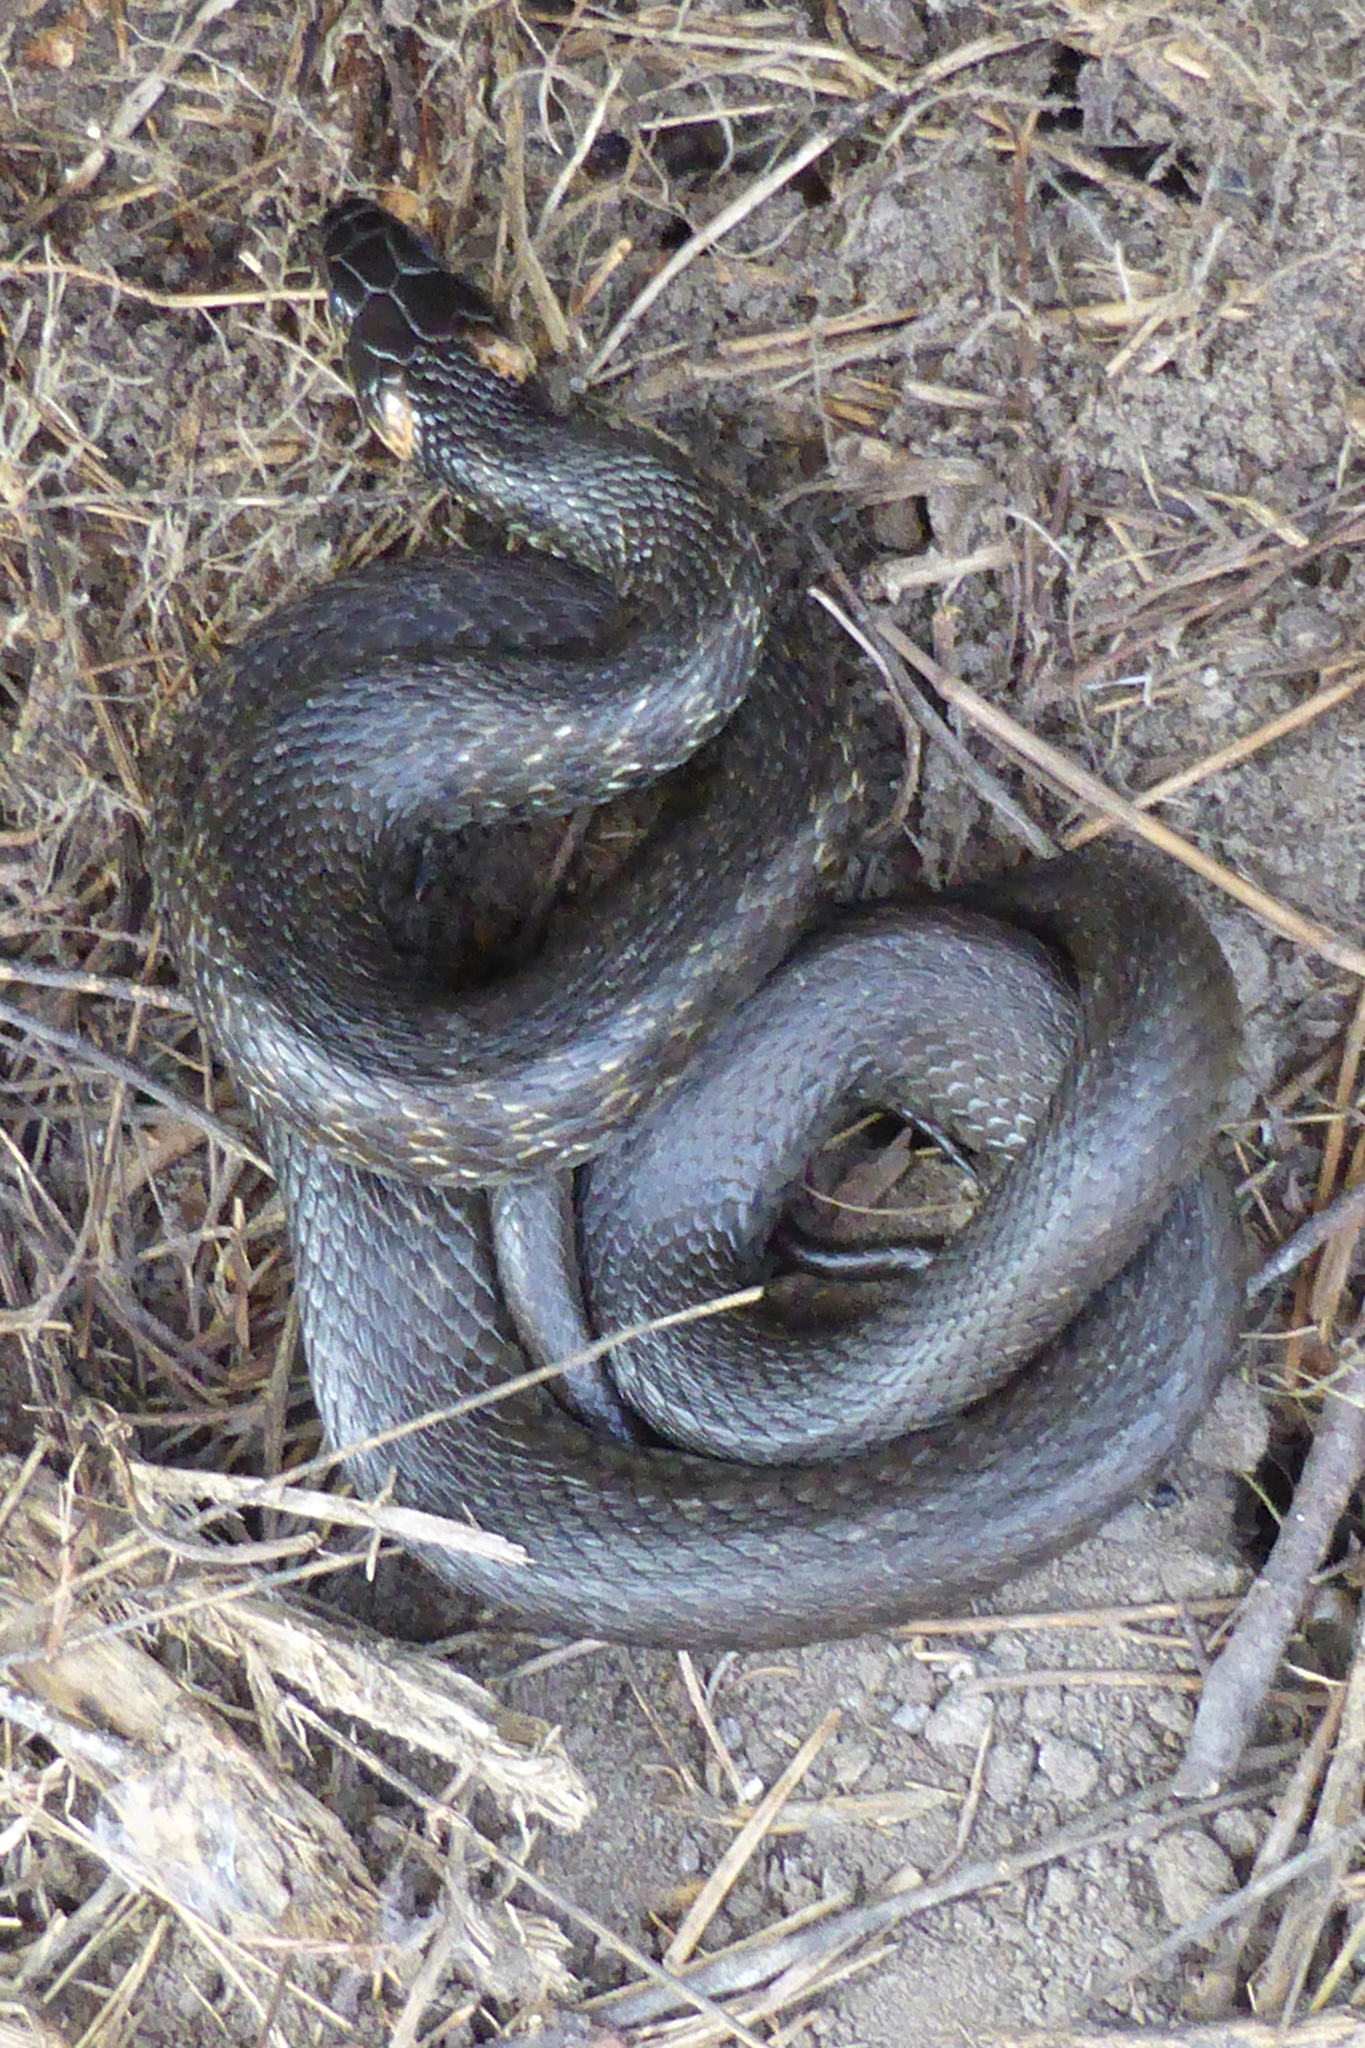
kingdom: Animalia
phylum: Chordata
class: Squamata
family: Colubridae
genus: Natrix
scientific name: Natrix natrix
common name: Grass snake
